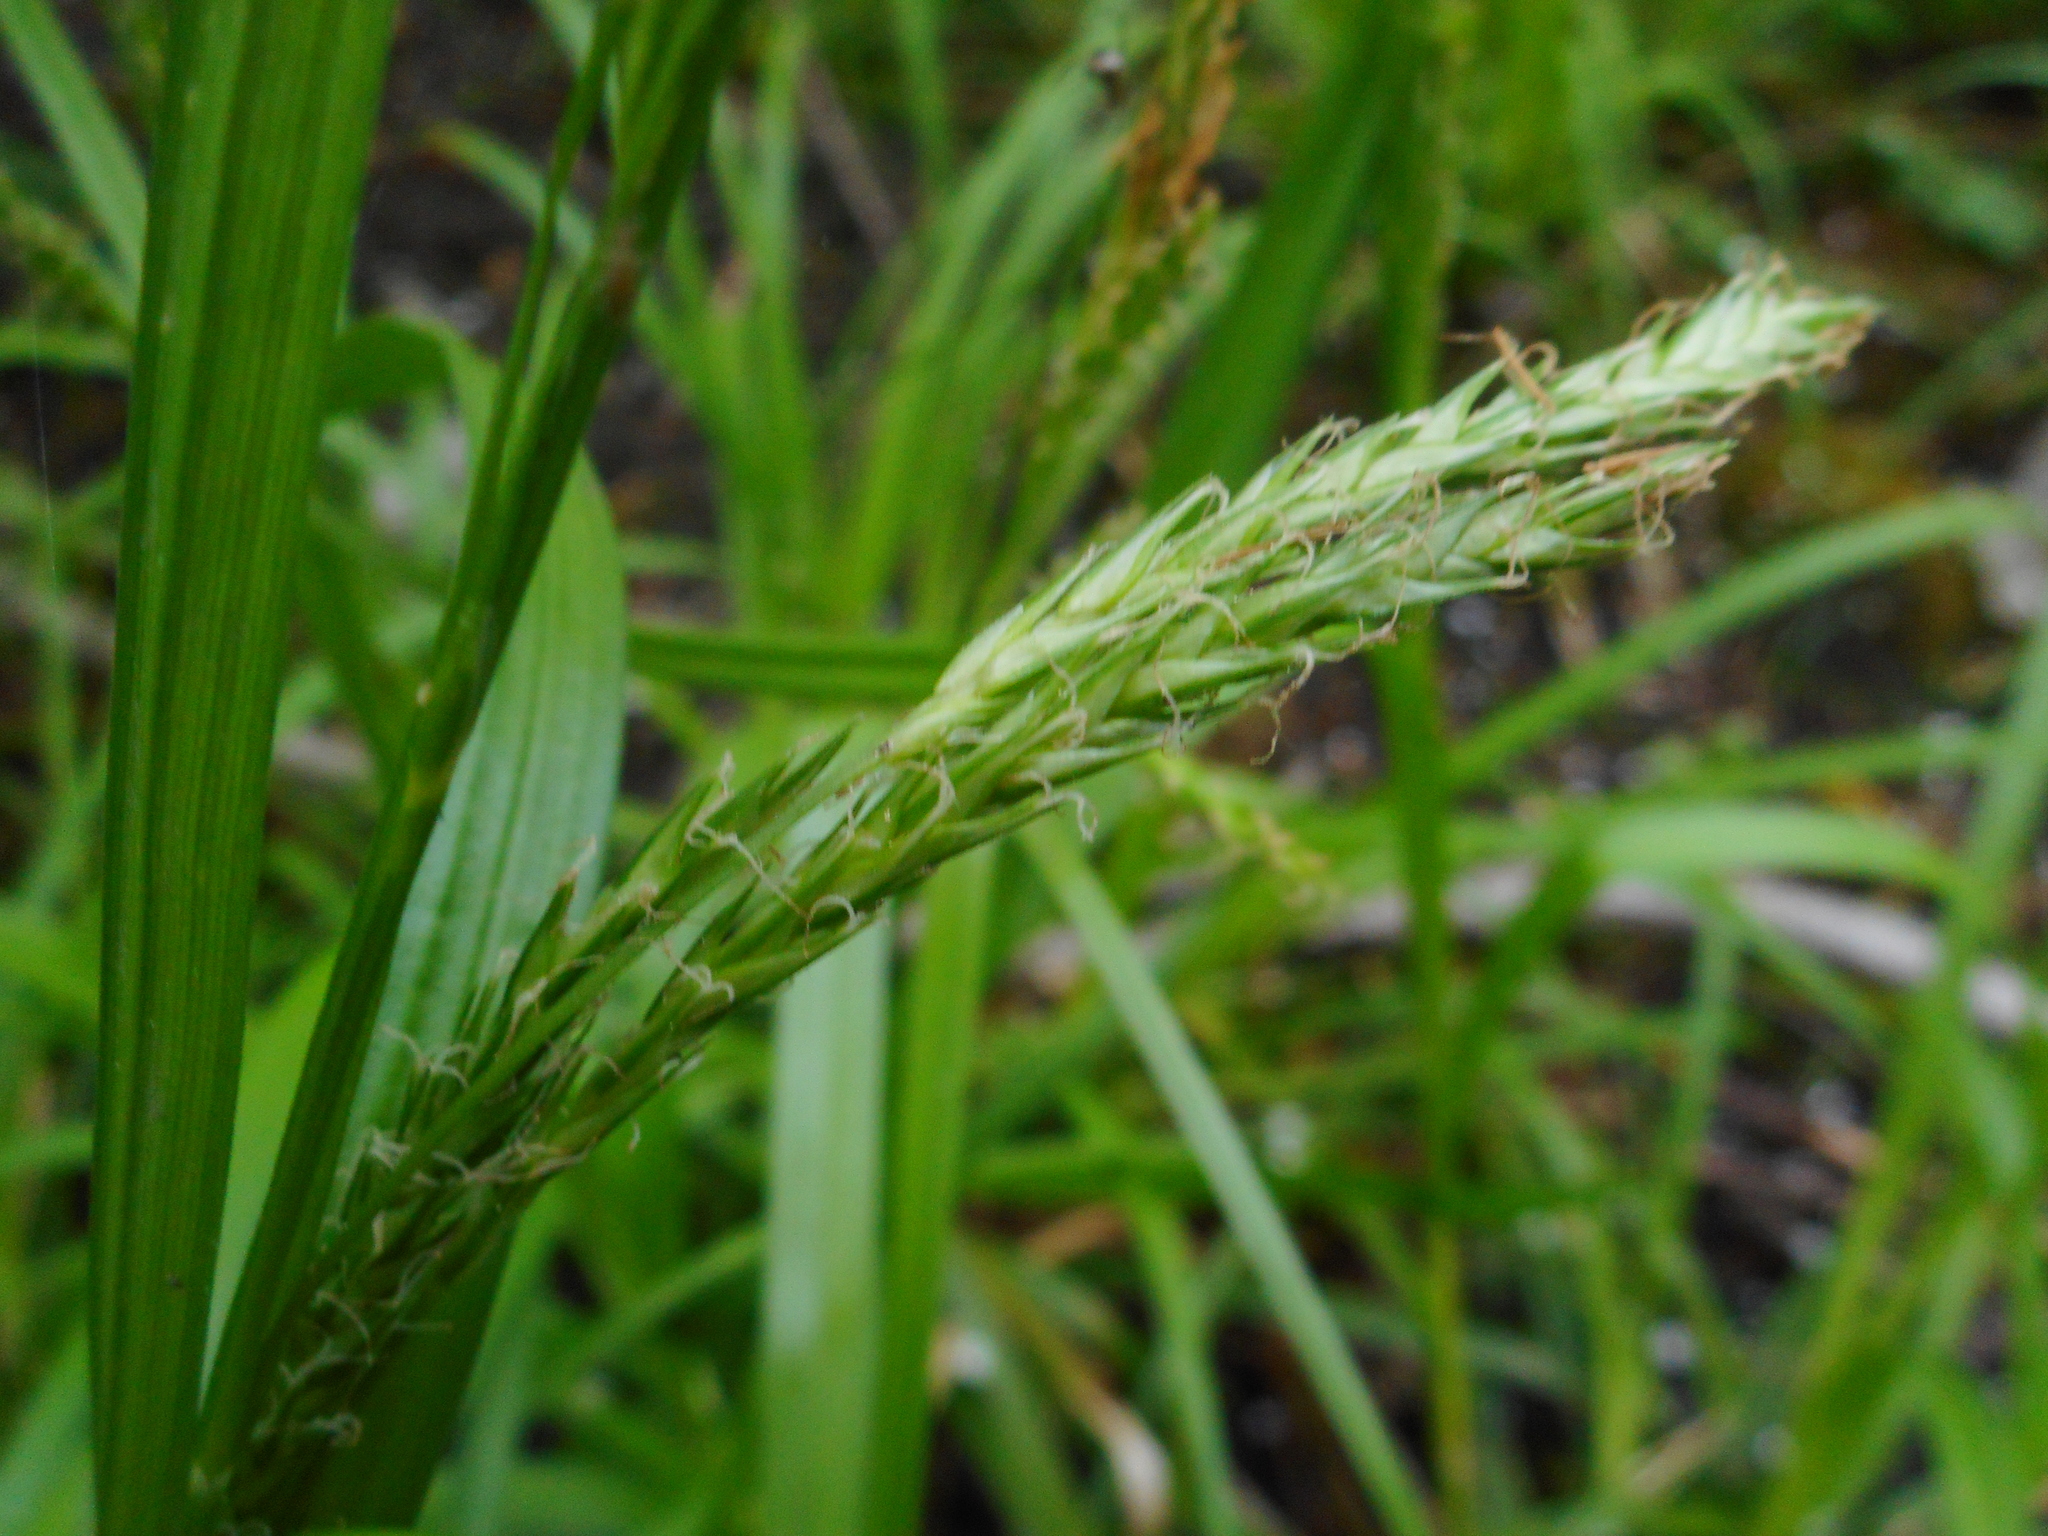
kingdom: Plantae
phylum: Tracheophyta
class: Liliopsida
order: Poales
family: Cyperaceae
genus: Carex
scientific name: Carex sylvatica
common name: Wood-sedge
